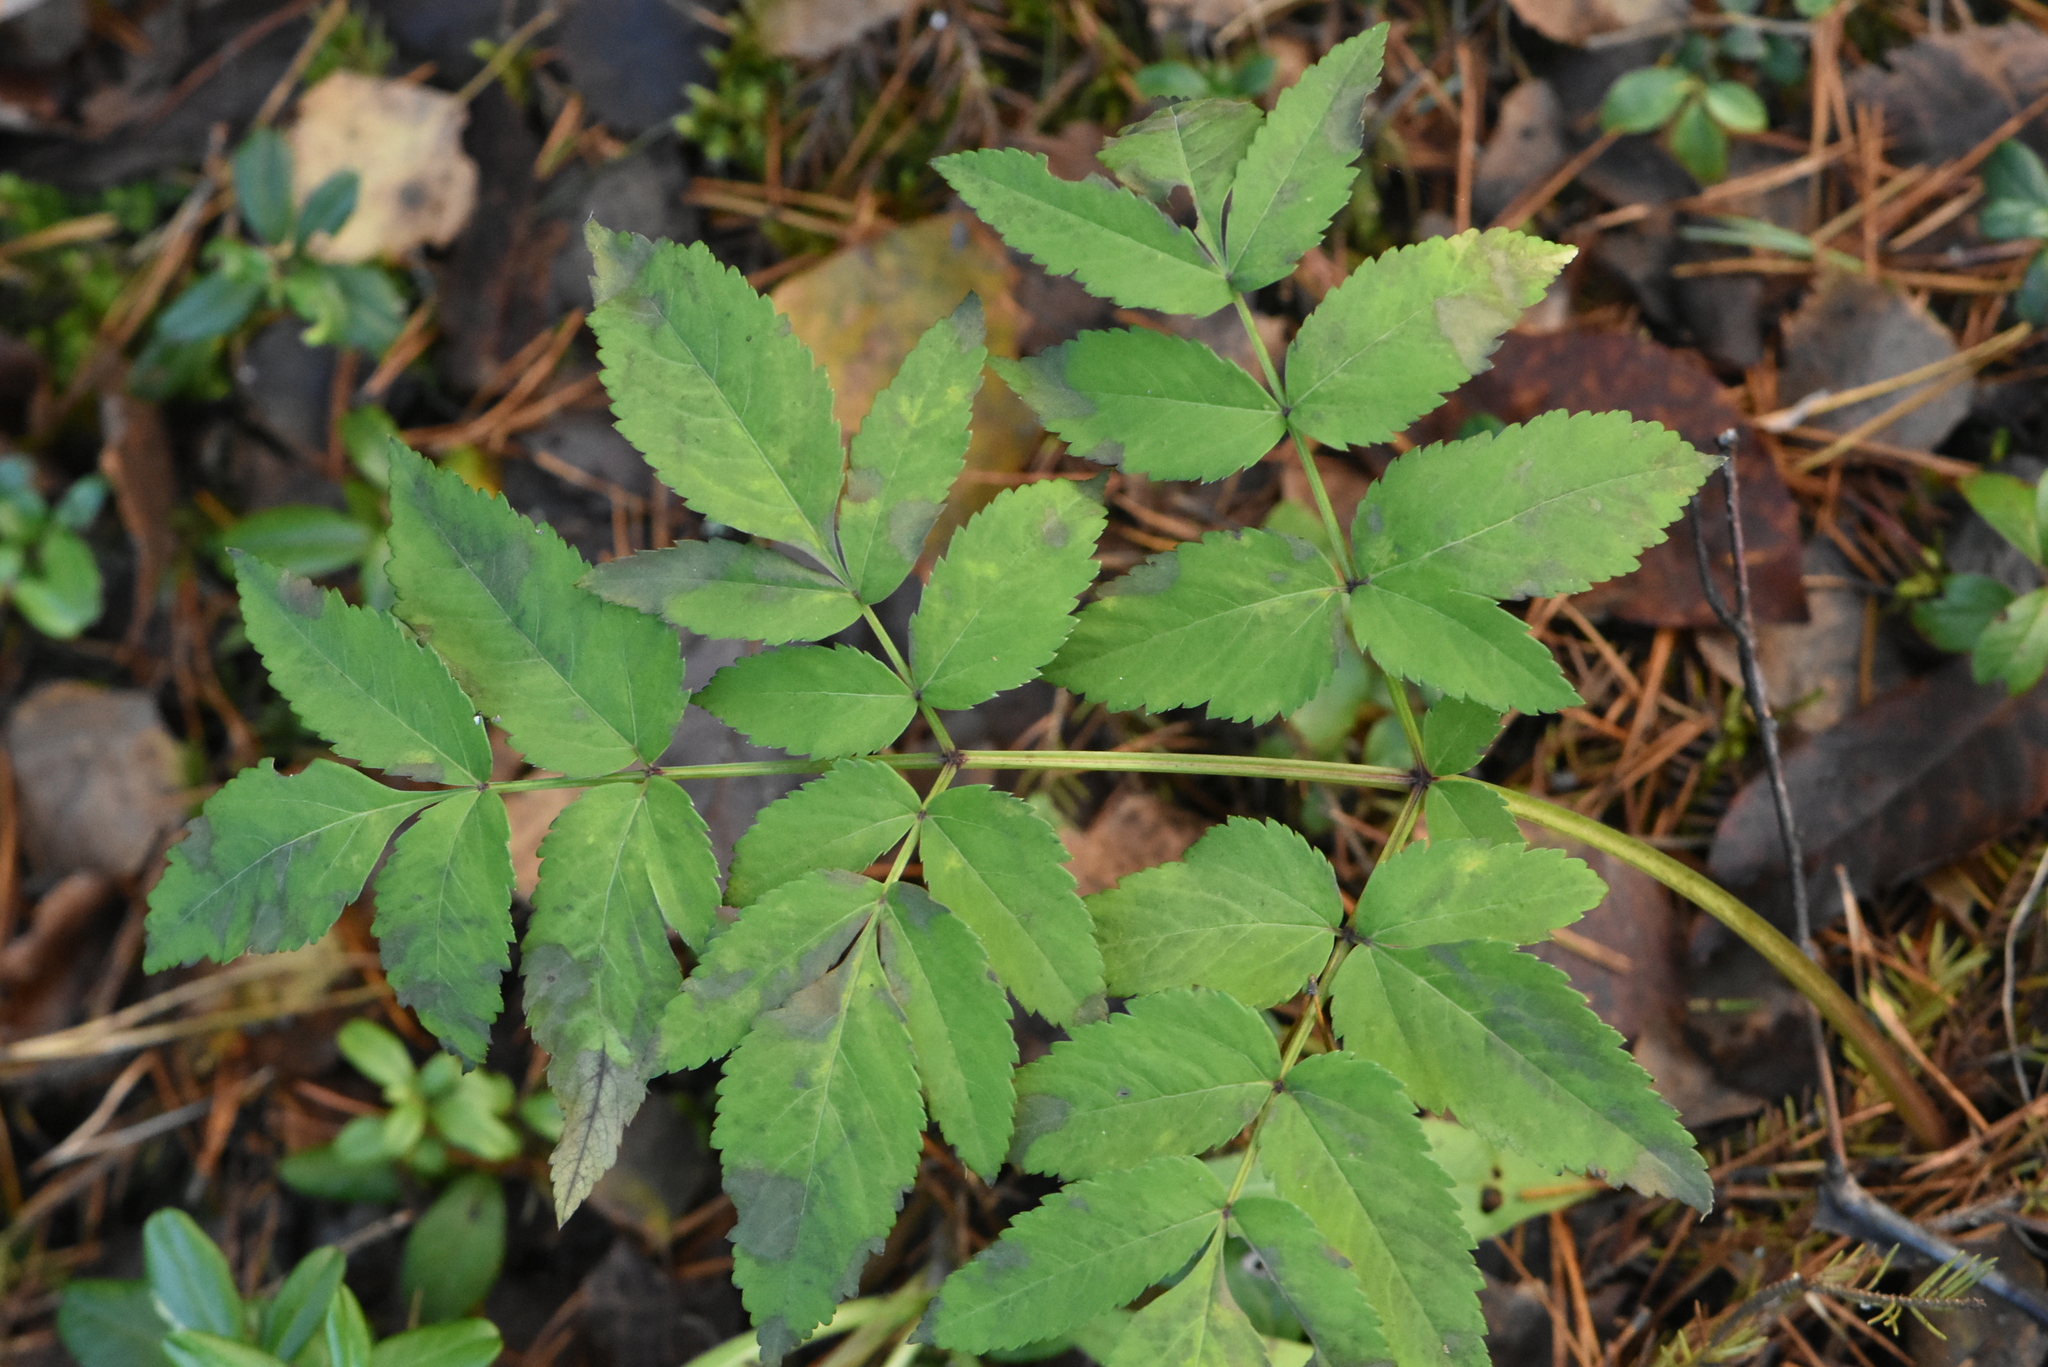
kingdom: Plantae
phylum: Tracheophyta
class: Magnoliopsida
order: Apiales
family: Apiaceae
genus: Angelica
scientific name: Angelica sylvestris
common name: Wild angelica
